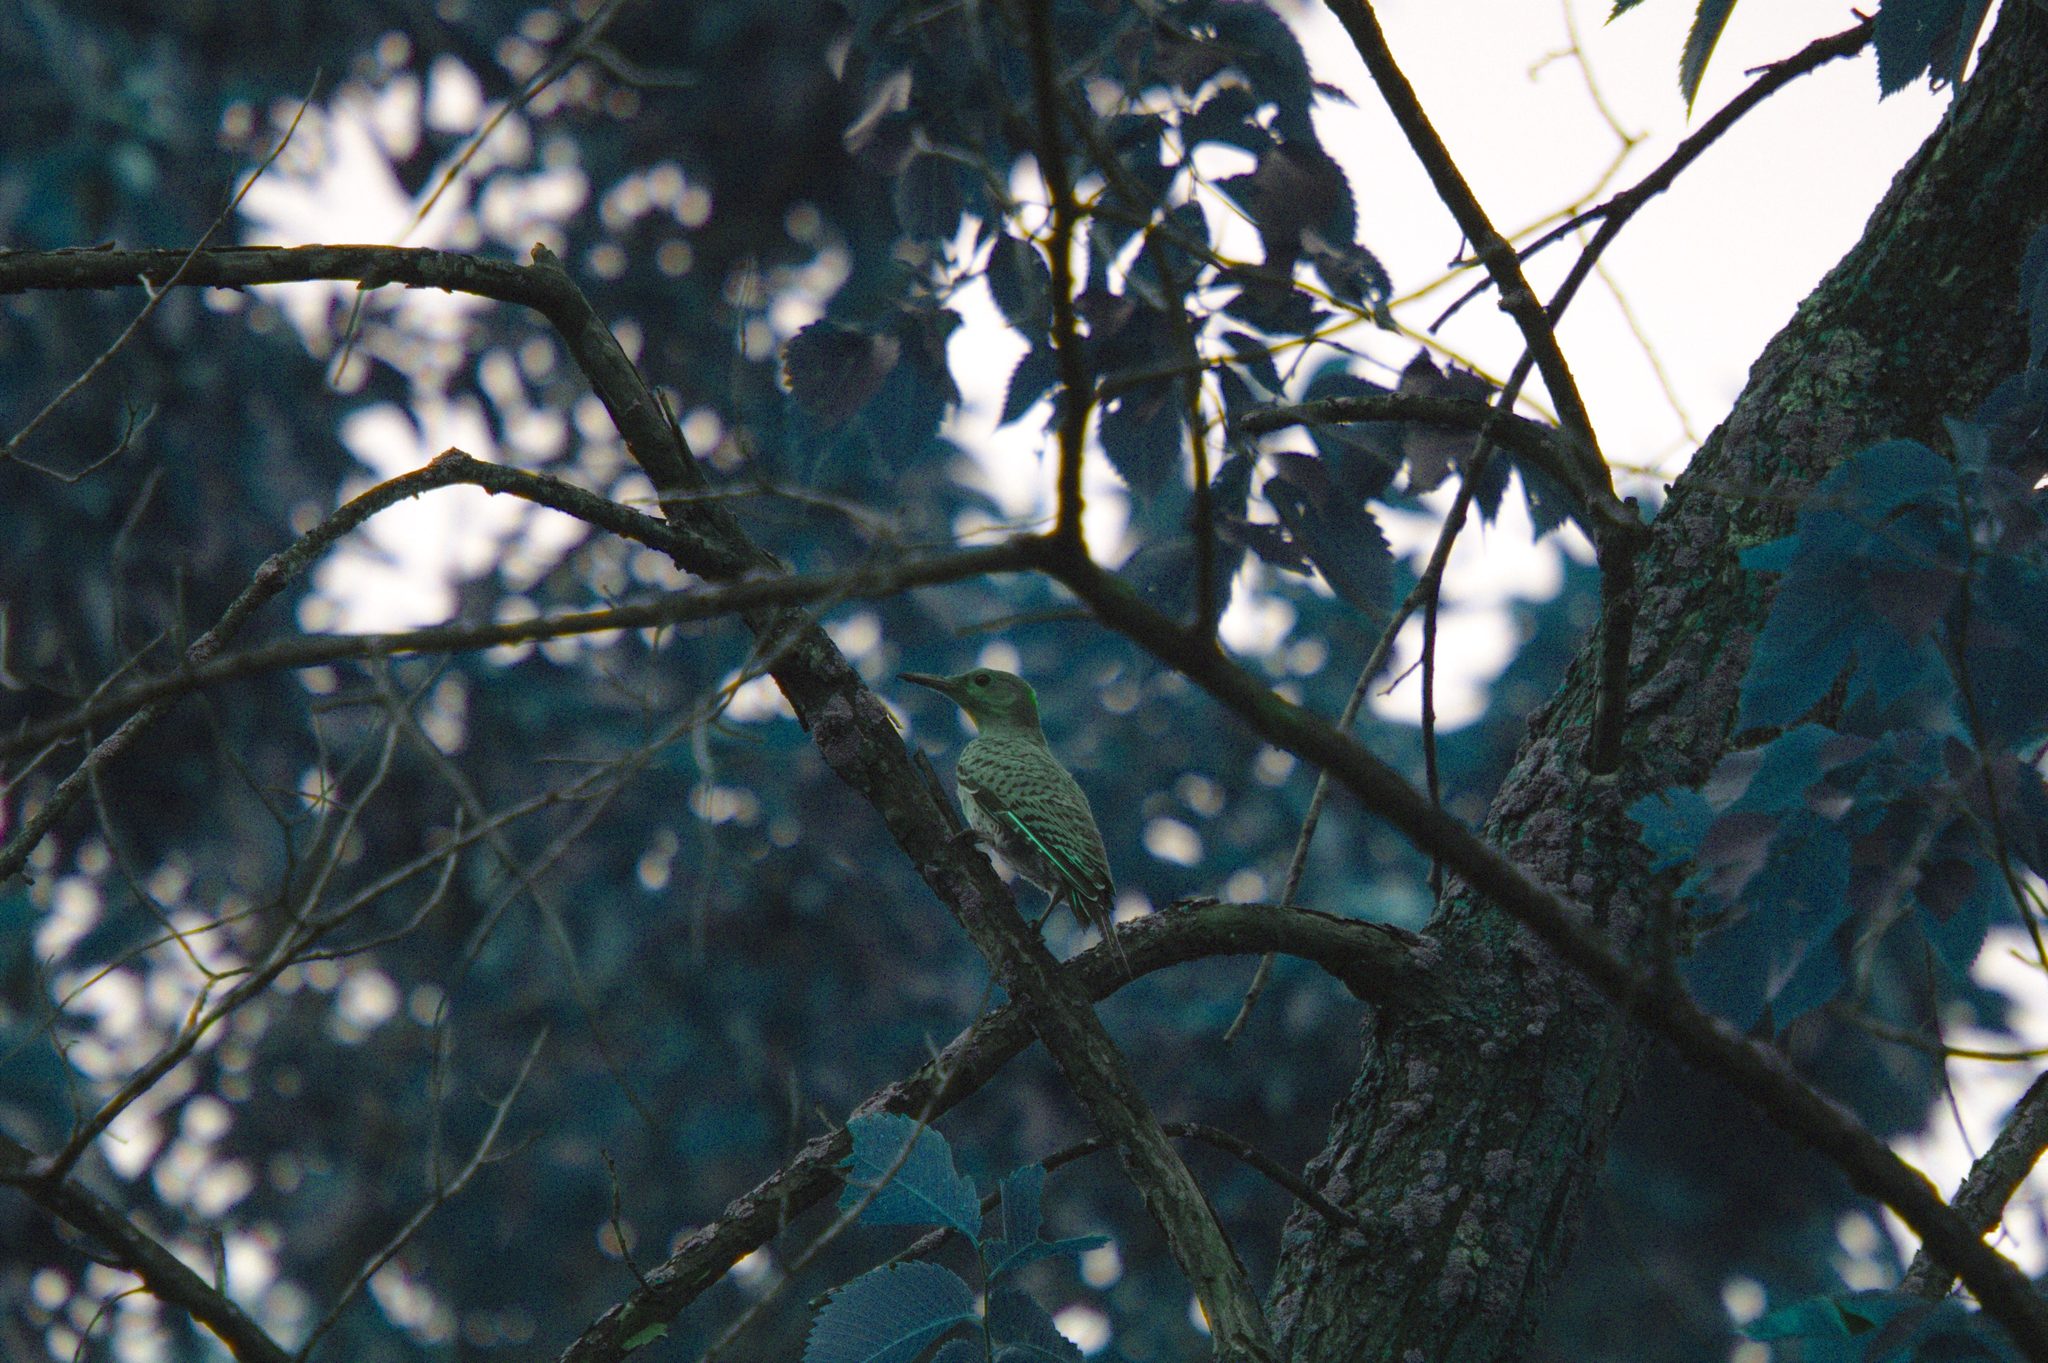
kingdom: Animalia
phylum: Chordata
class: Aves
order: Piciformes
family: Picidae
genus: Colaptes
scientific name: Colaptes auratus
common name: Northern flicker
